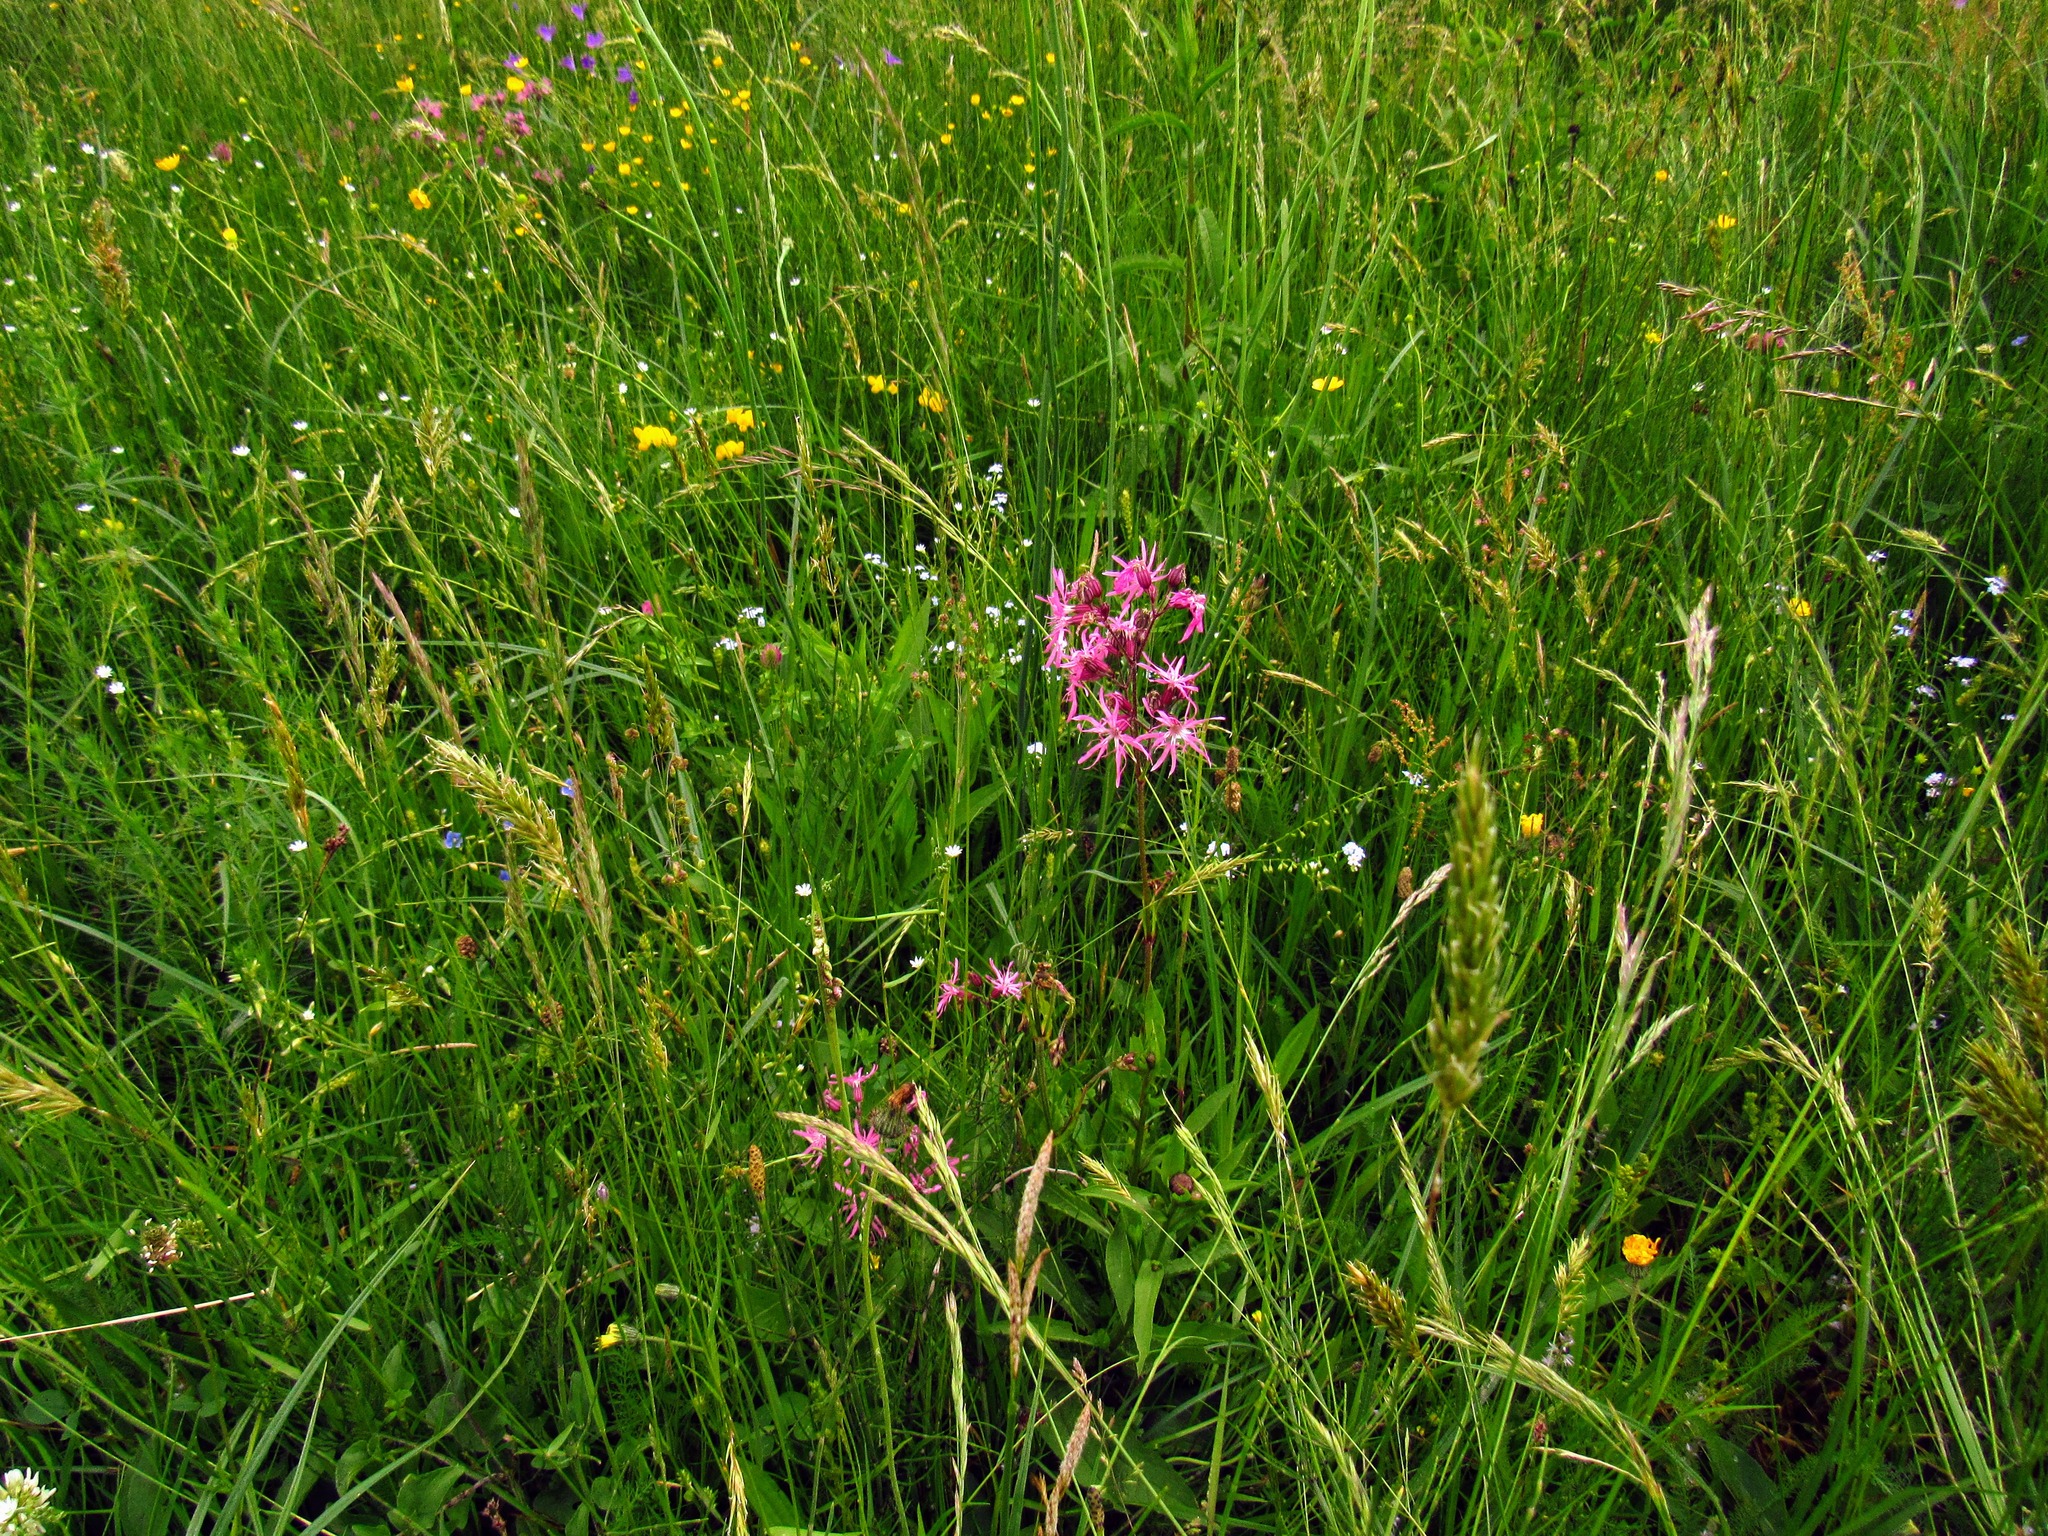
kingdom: Plantae
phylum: Tracheophyta
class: Magnoliopsida
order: Caryophyllales
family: Caryophyllaceae
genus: Silene
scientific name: Silene flos-cuculi
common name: Ragged-robin
